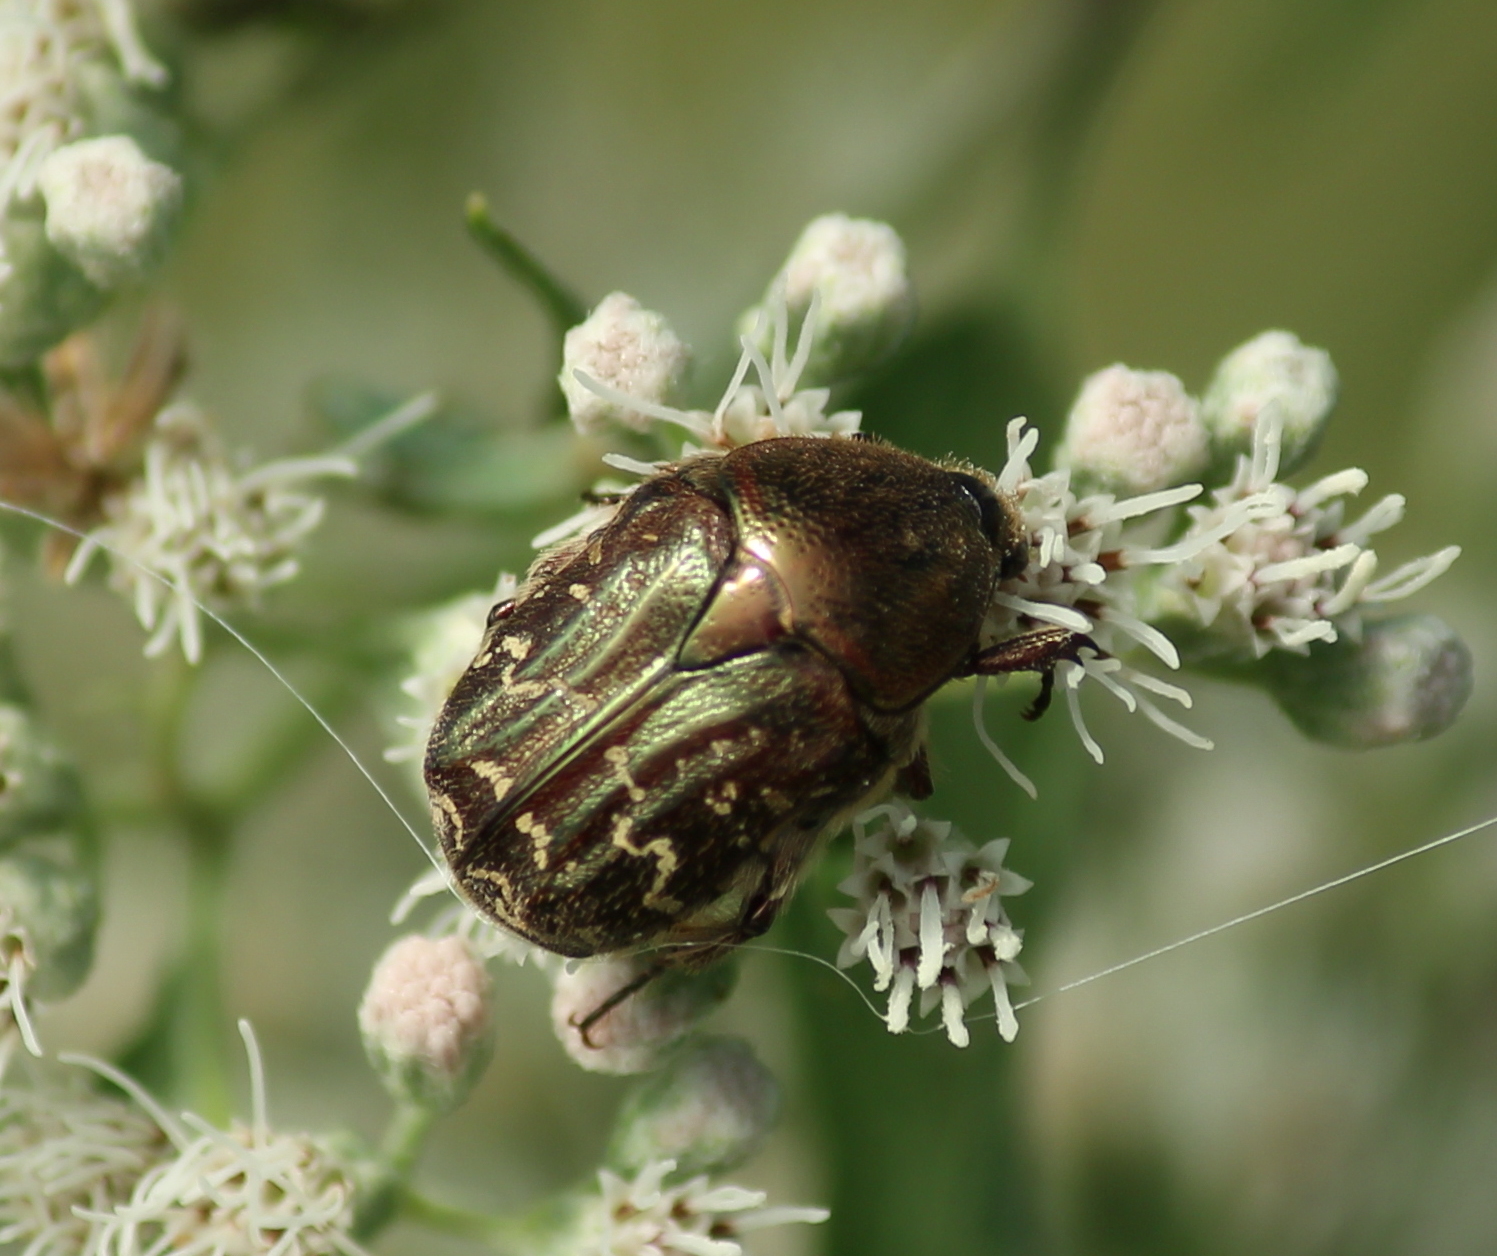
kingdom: Animalia
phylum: Arthropoda
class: Insecta
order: Coleoptera
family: Scarabaeidae
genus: Euphoria
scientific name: Euphoria sepulcralis
